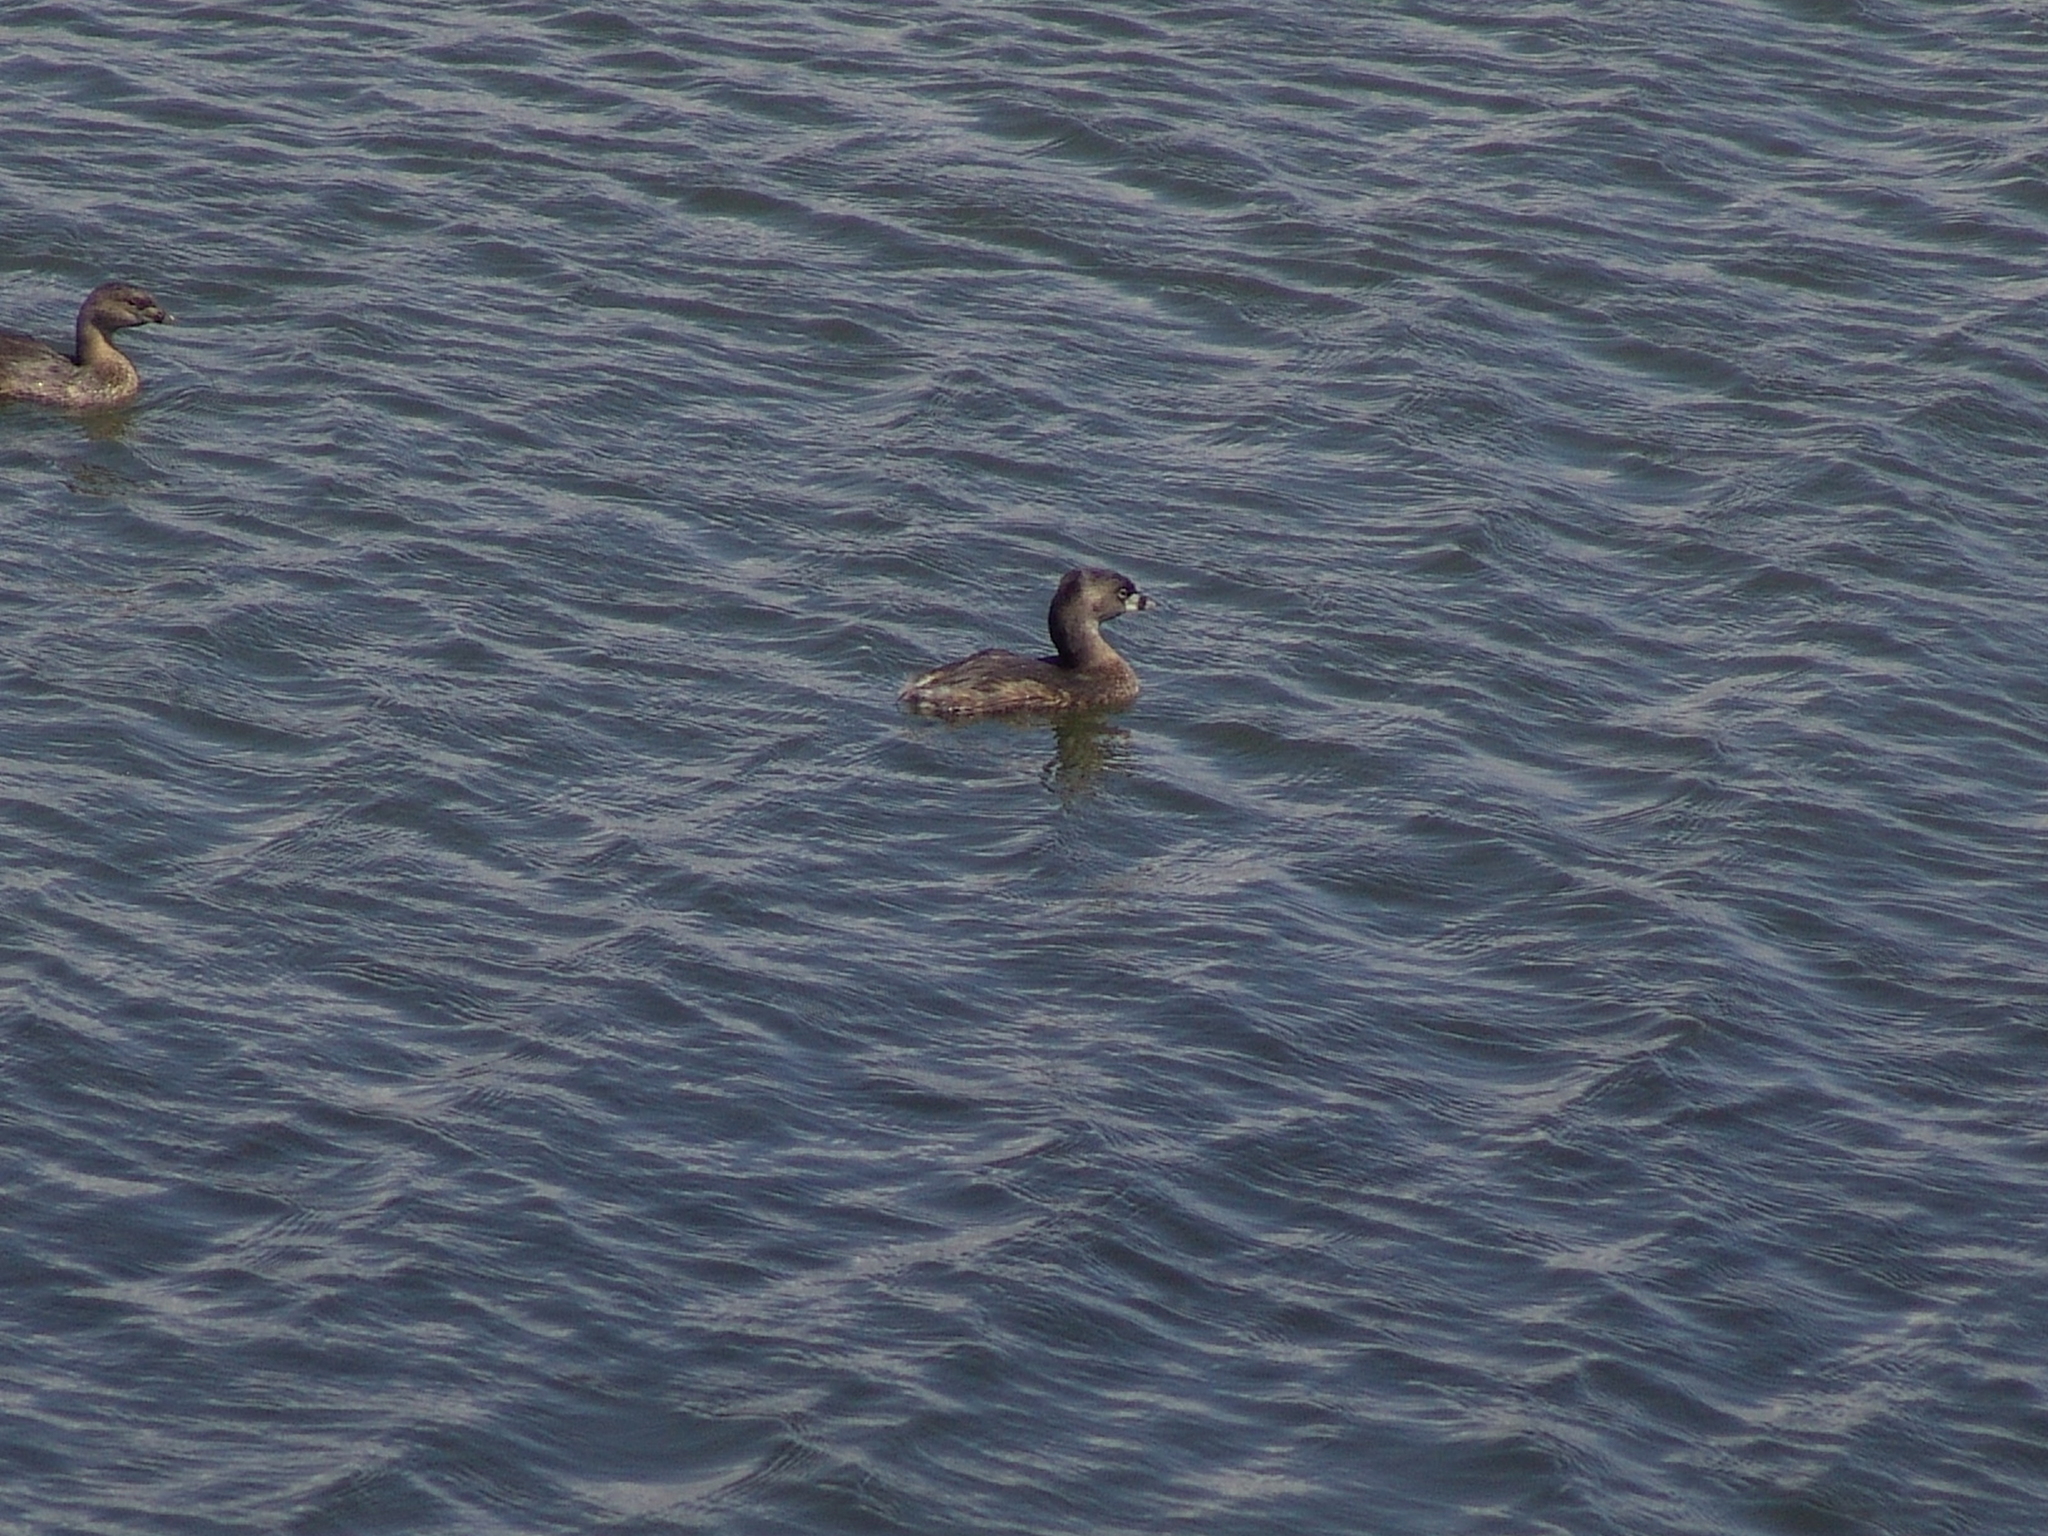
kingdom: Animalia
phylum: Chordata
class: Aves
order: Podicipediformes
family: Podicipedidae
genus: Podilymbus
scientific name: Podilymbus podiceps
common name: Pied-billed grebe
